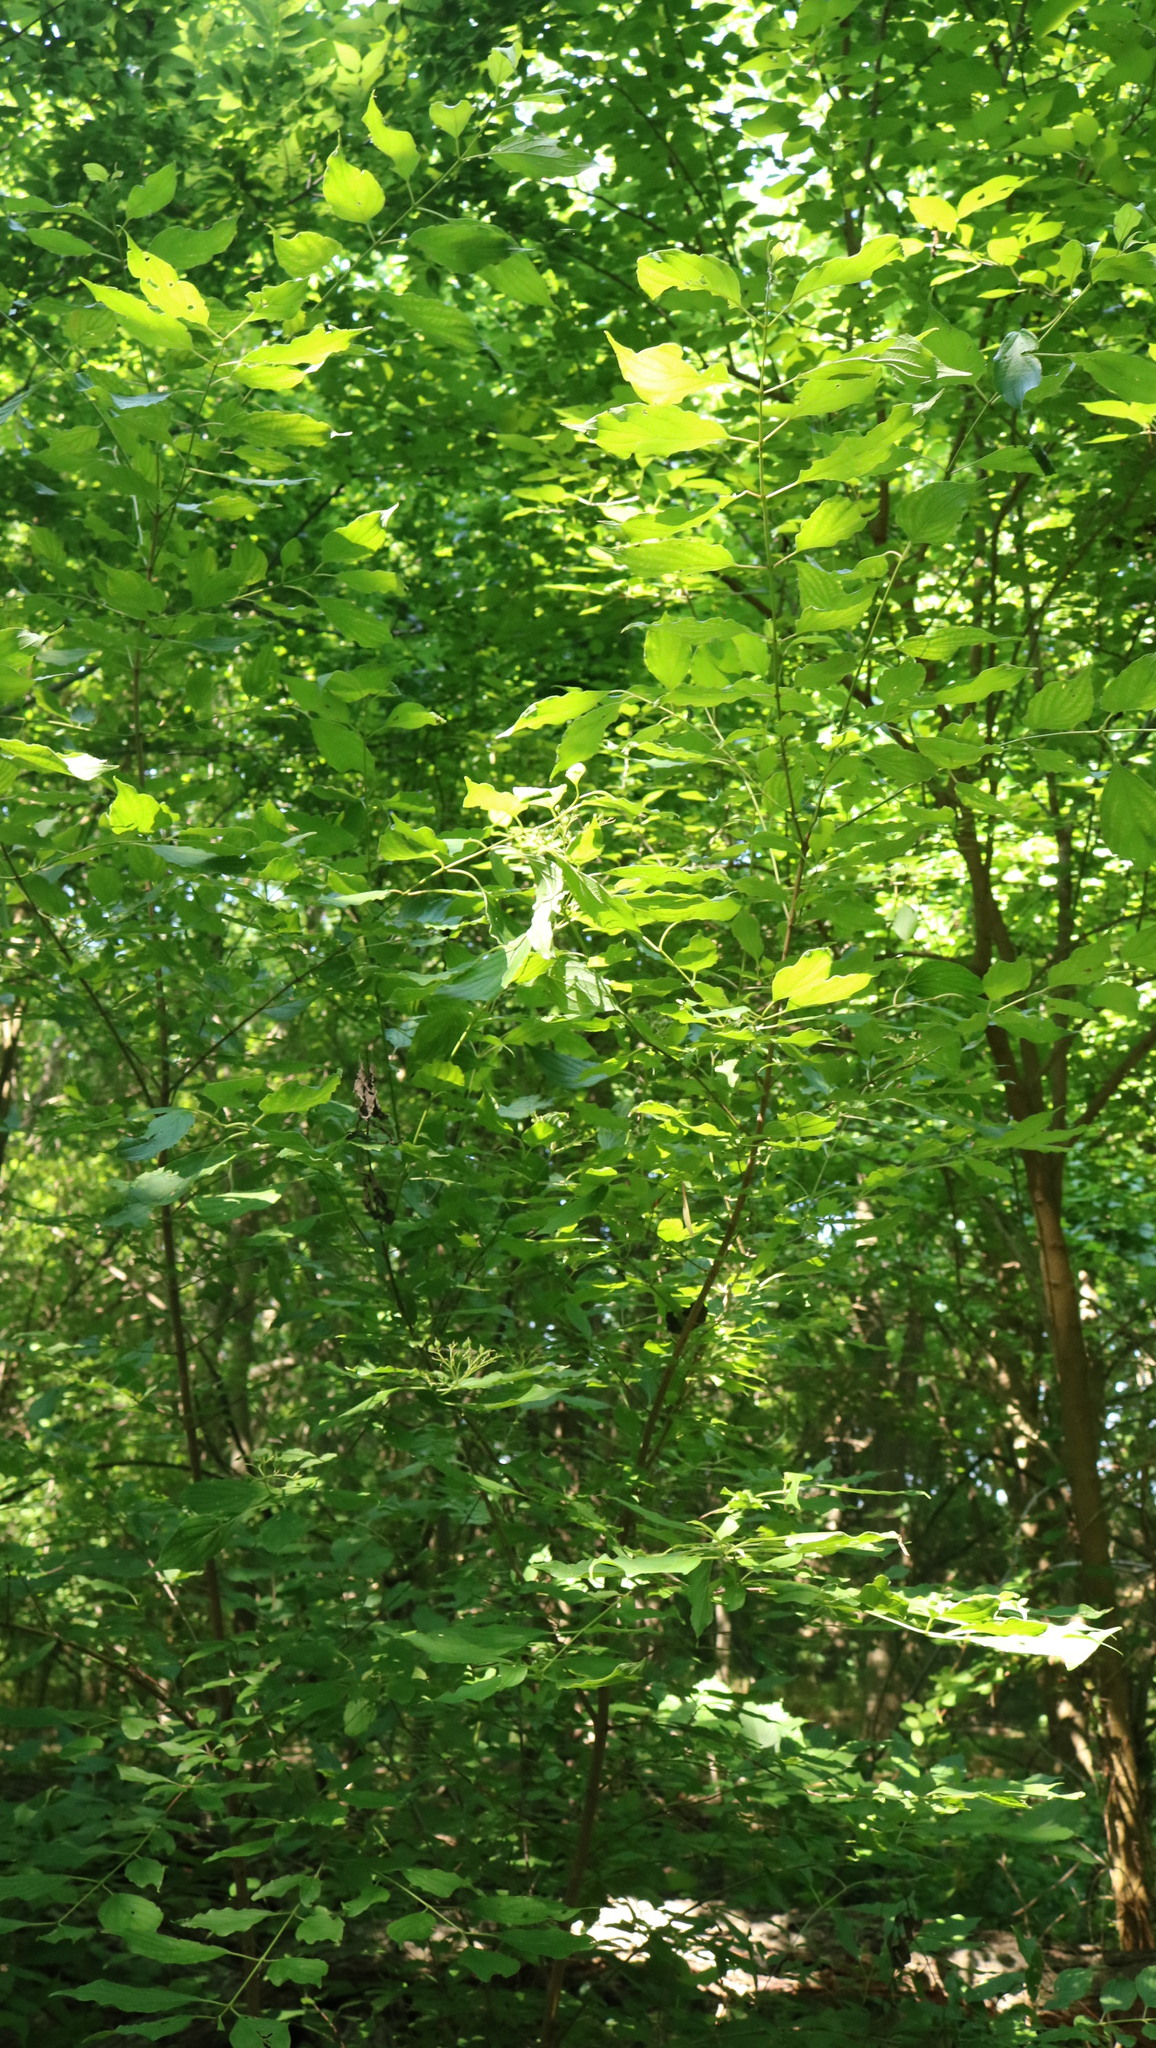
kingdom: Plantae
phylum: Tracheophyta
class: Magnoliopsida
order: Cornales
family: Cornaceae
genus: Cornus
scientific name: Cornus drummondii
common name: Rough-leaf dogwood
